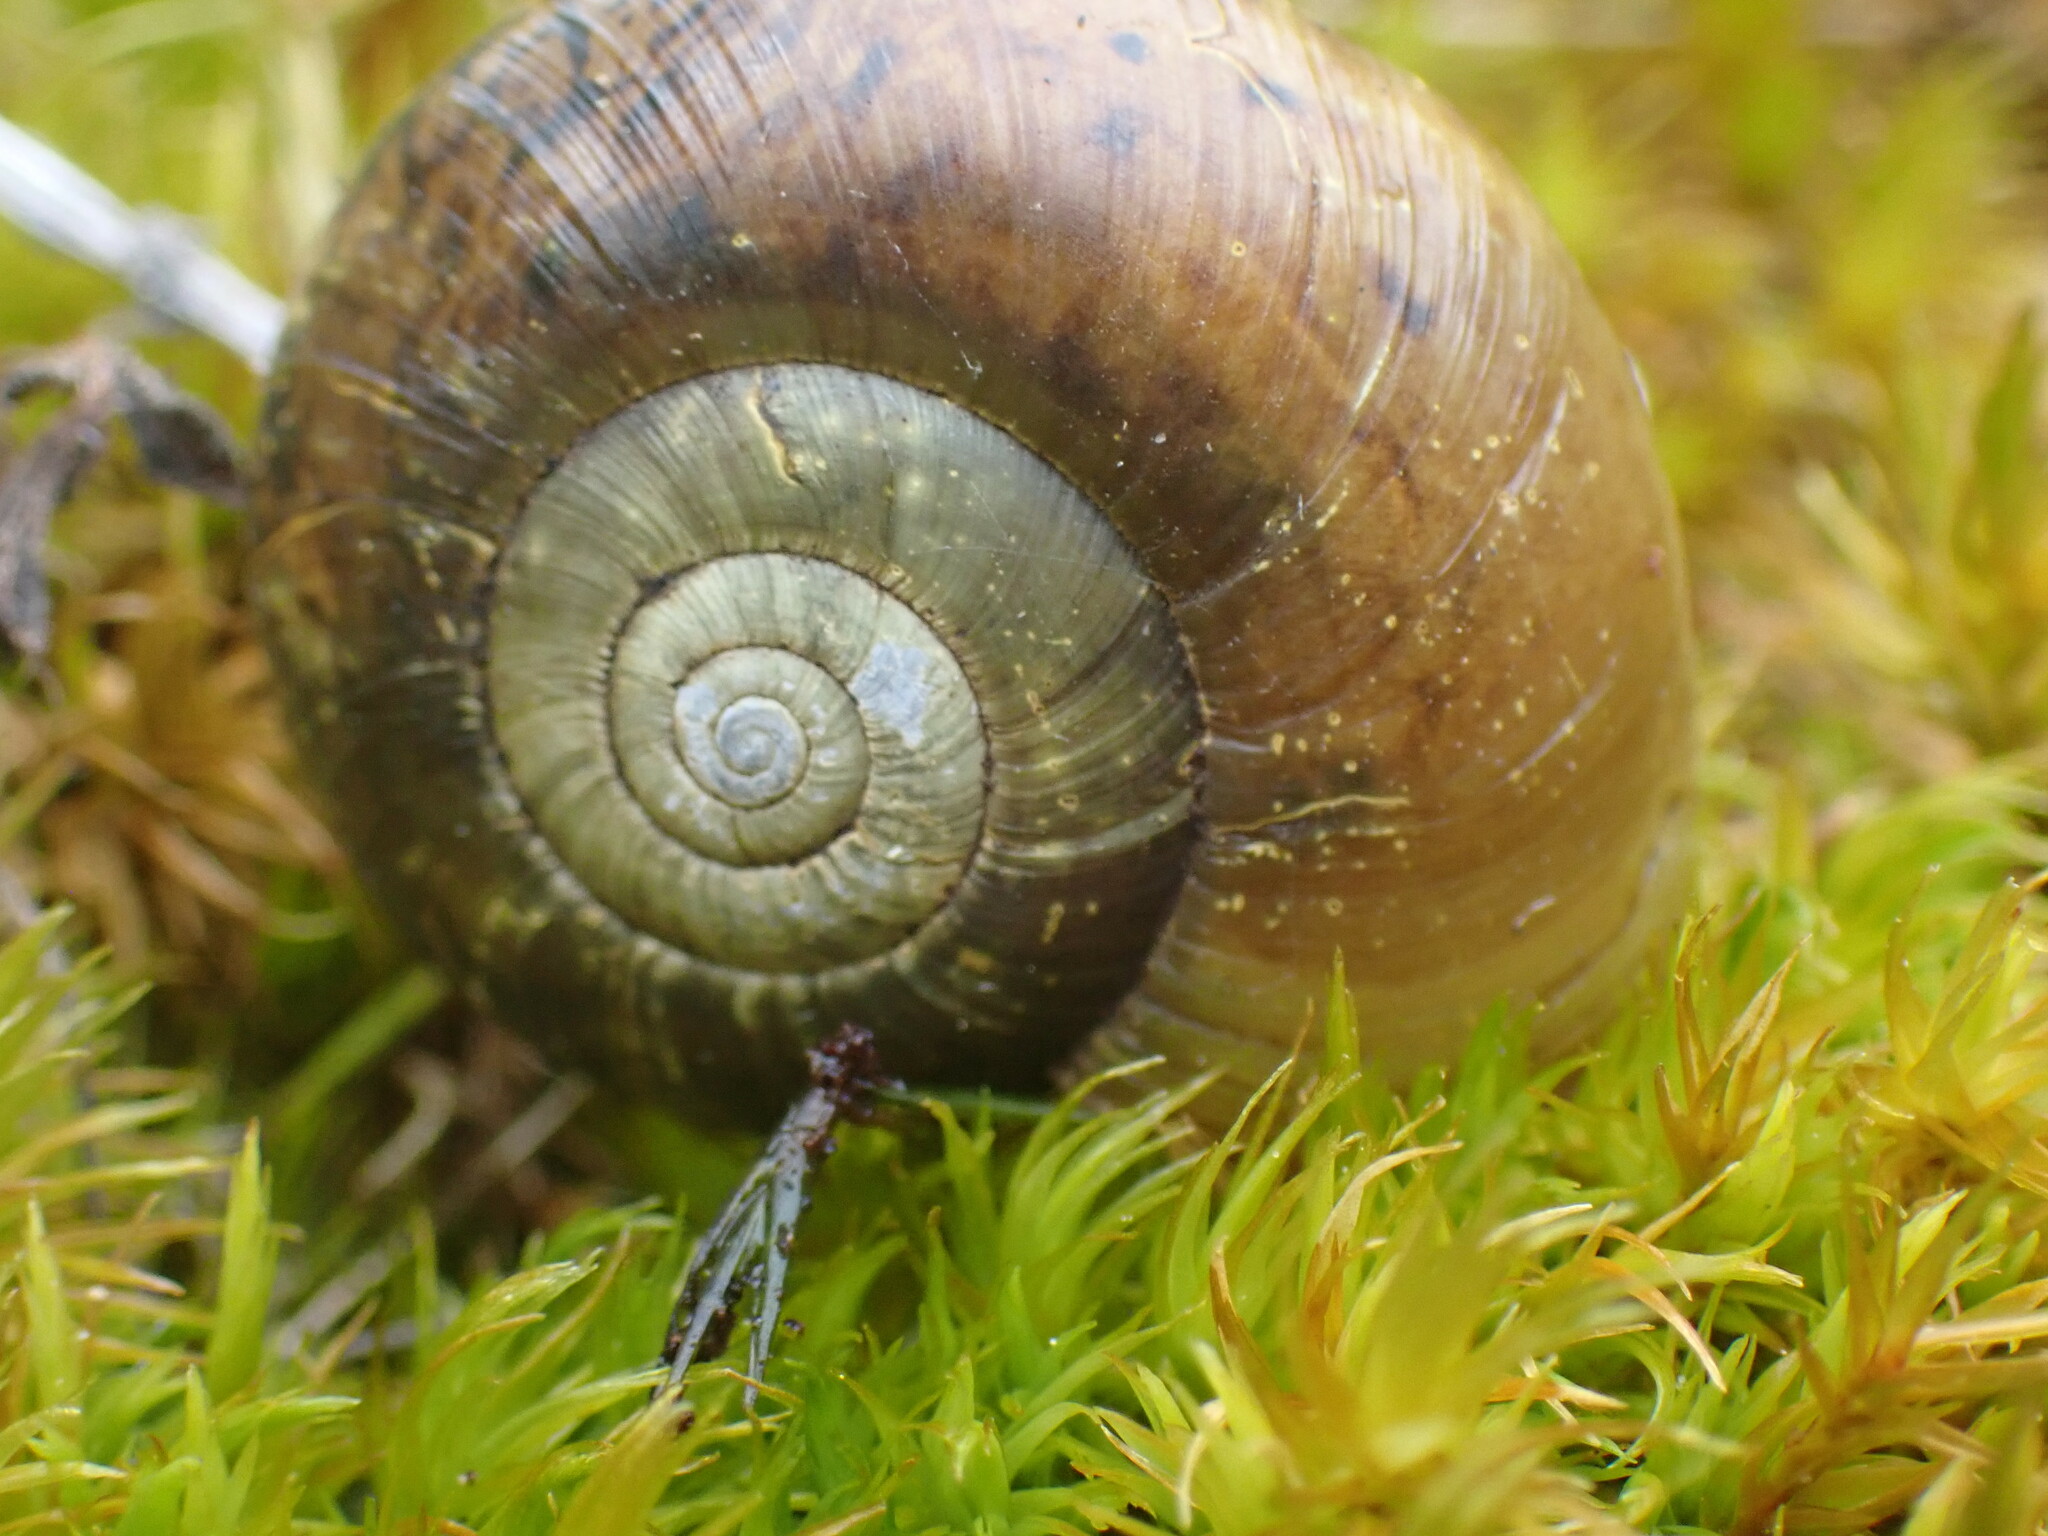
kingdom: Animalia
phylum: Mollusca
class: Gastropoda
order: Stylommatophora
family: Haplotrematidae
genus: Haplotrema
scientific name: Haplotrema vancouverense
